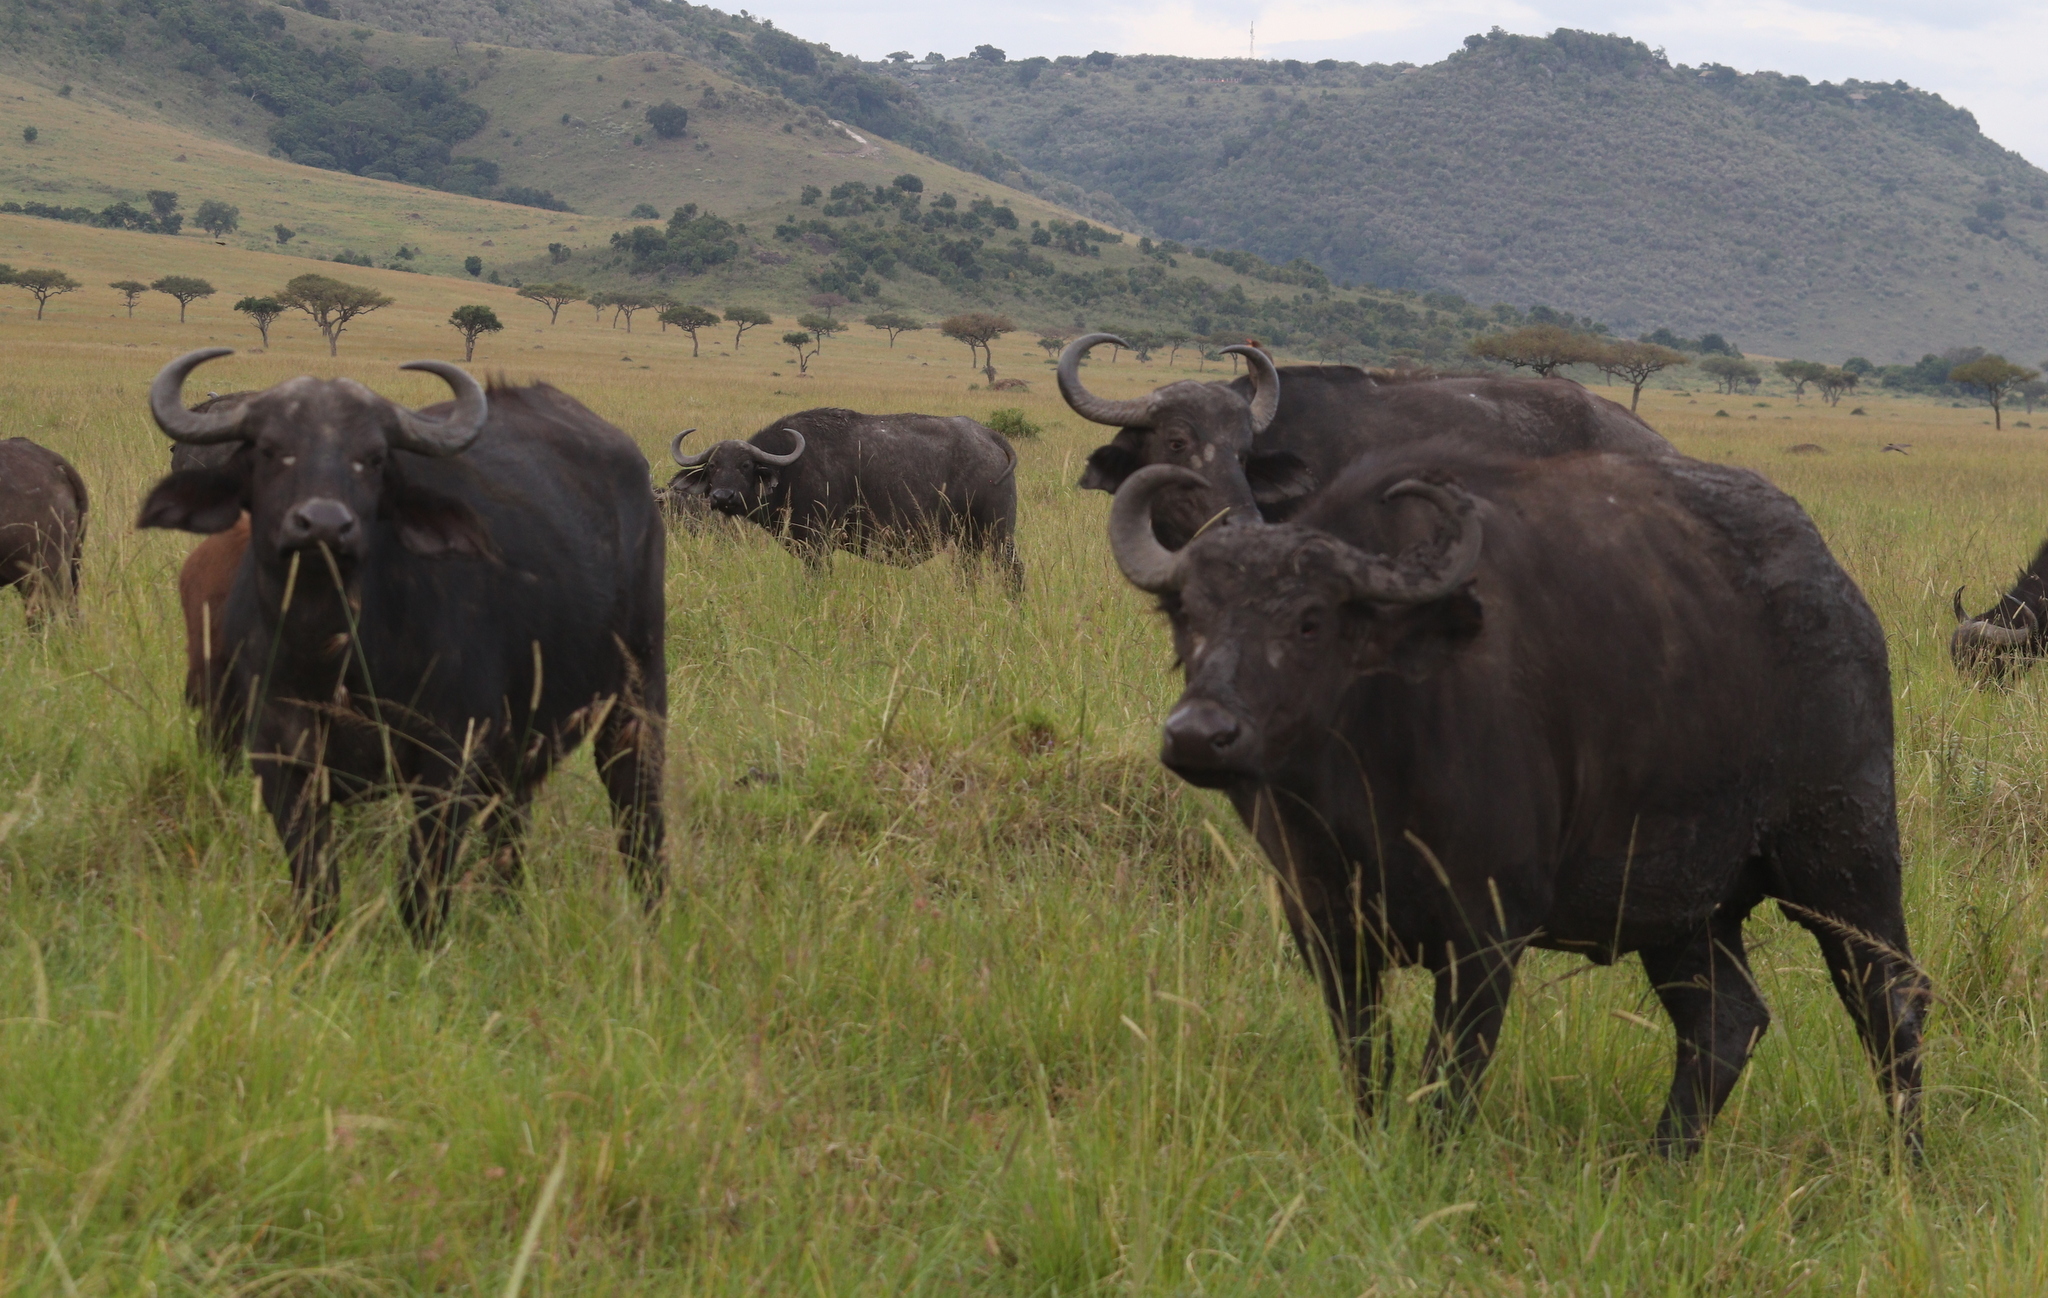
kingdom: Animalia
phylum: Chordata
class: Mammalia
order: Artiodactyla
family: Bovidae
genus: Syncerus
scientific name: Syncerus caffer
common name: African buffalo
